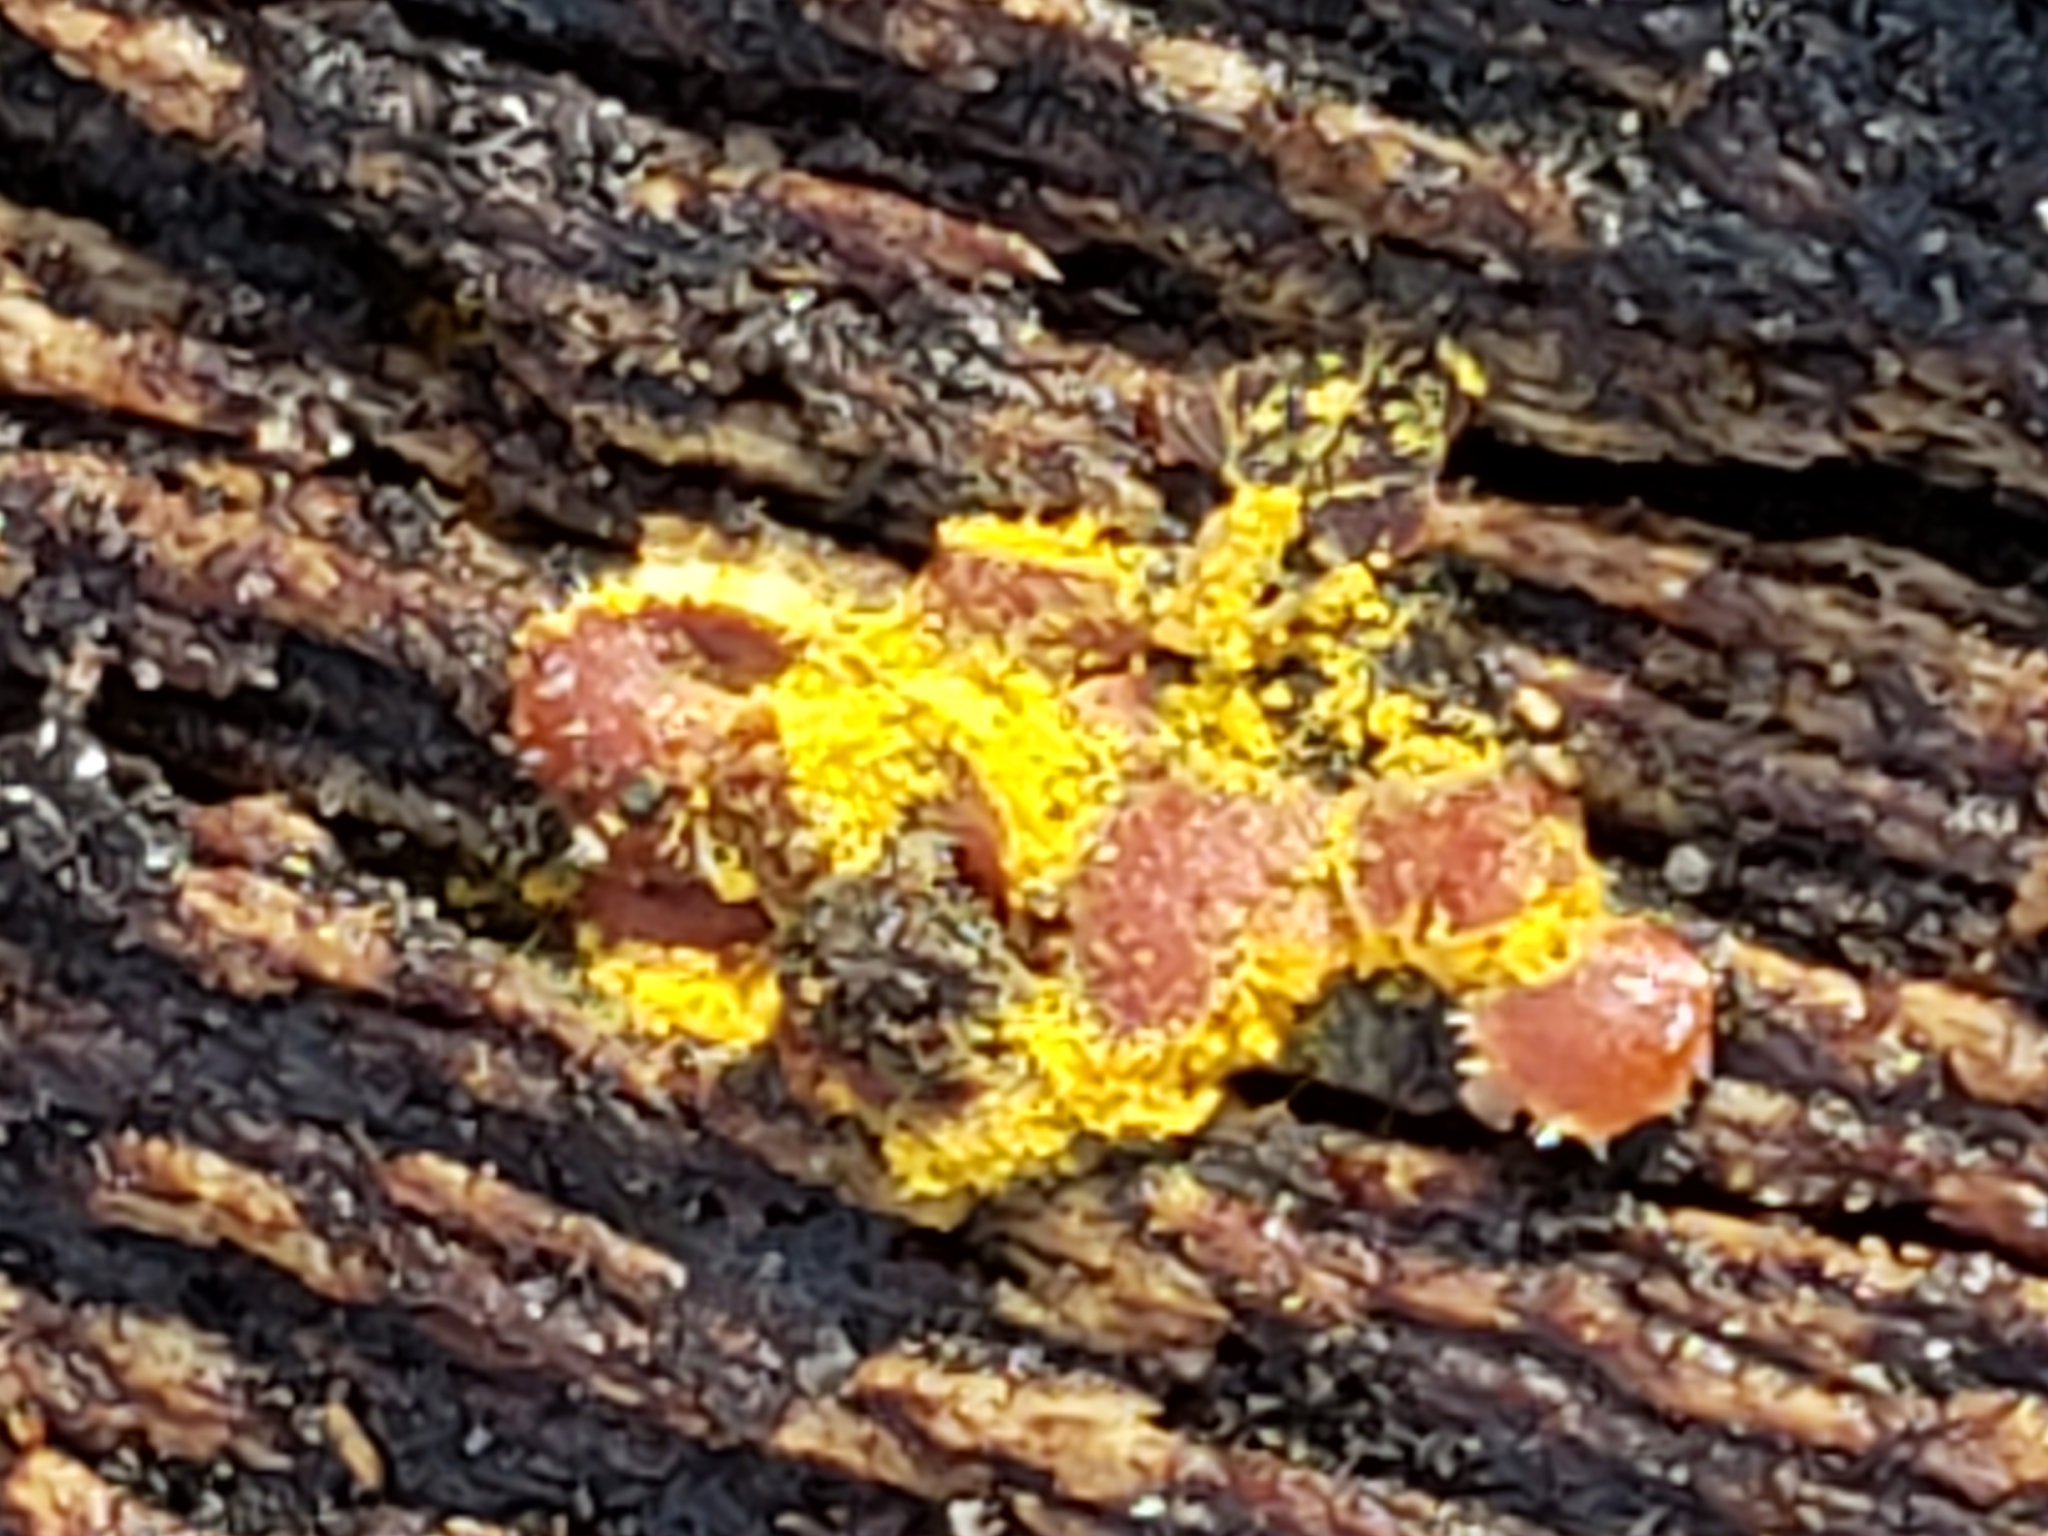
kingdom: Protozoa
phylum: Mycetozoa
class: Myxomycetes
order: Trichiales
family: Trichiaceae
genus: Perichaena
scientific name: Perichaena depressa
